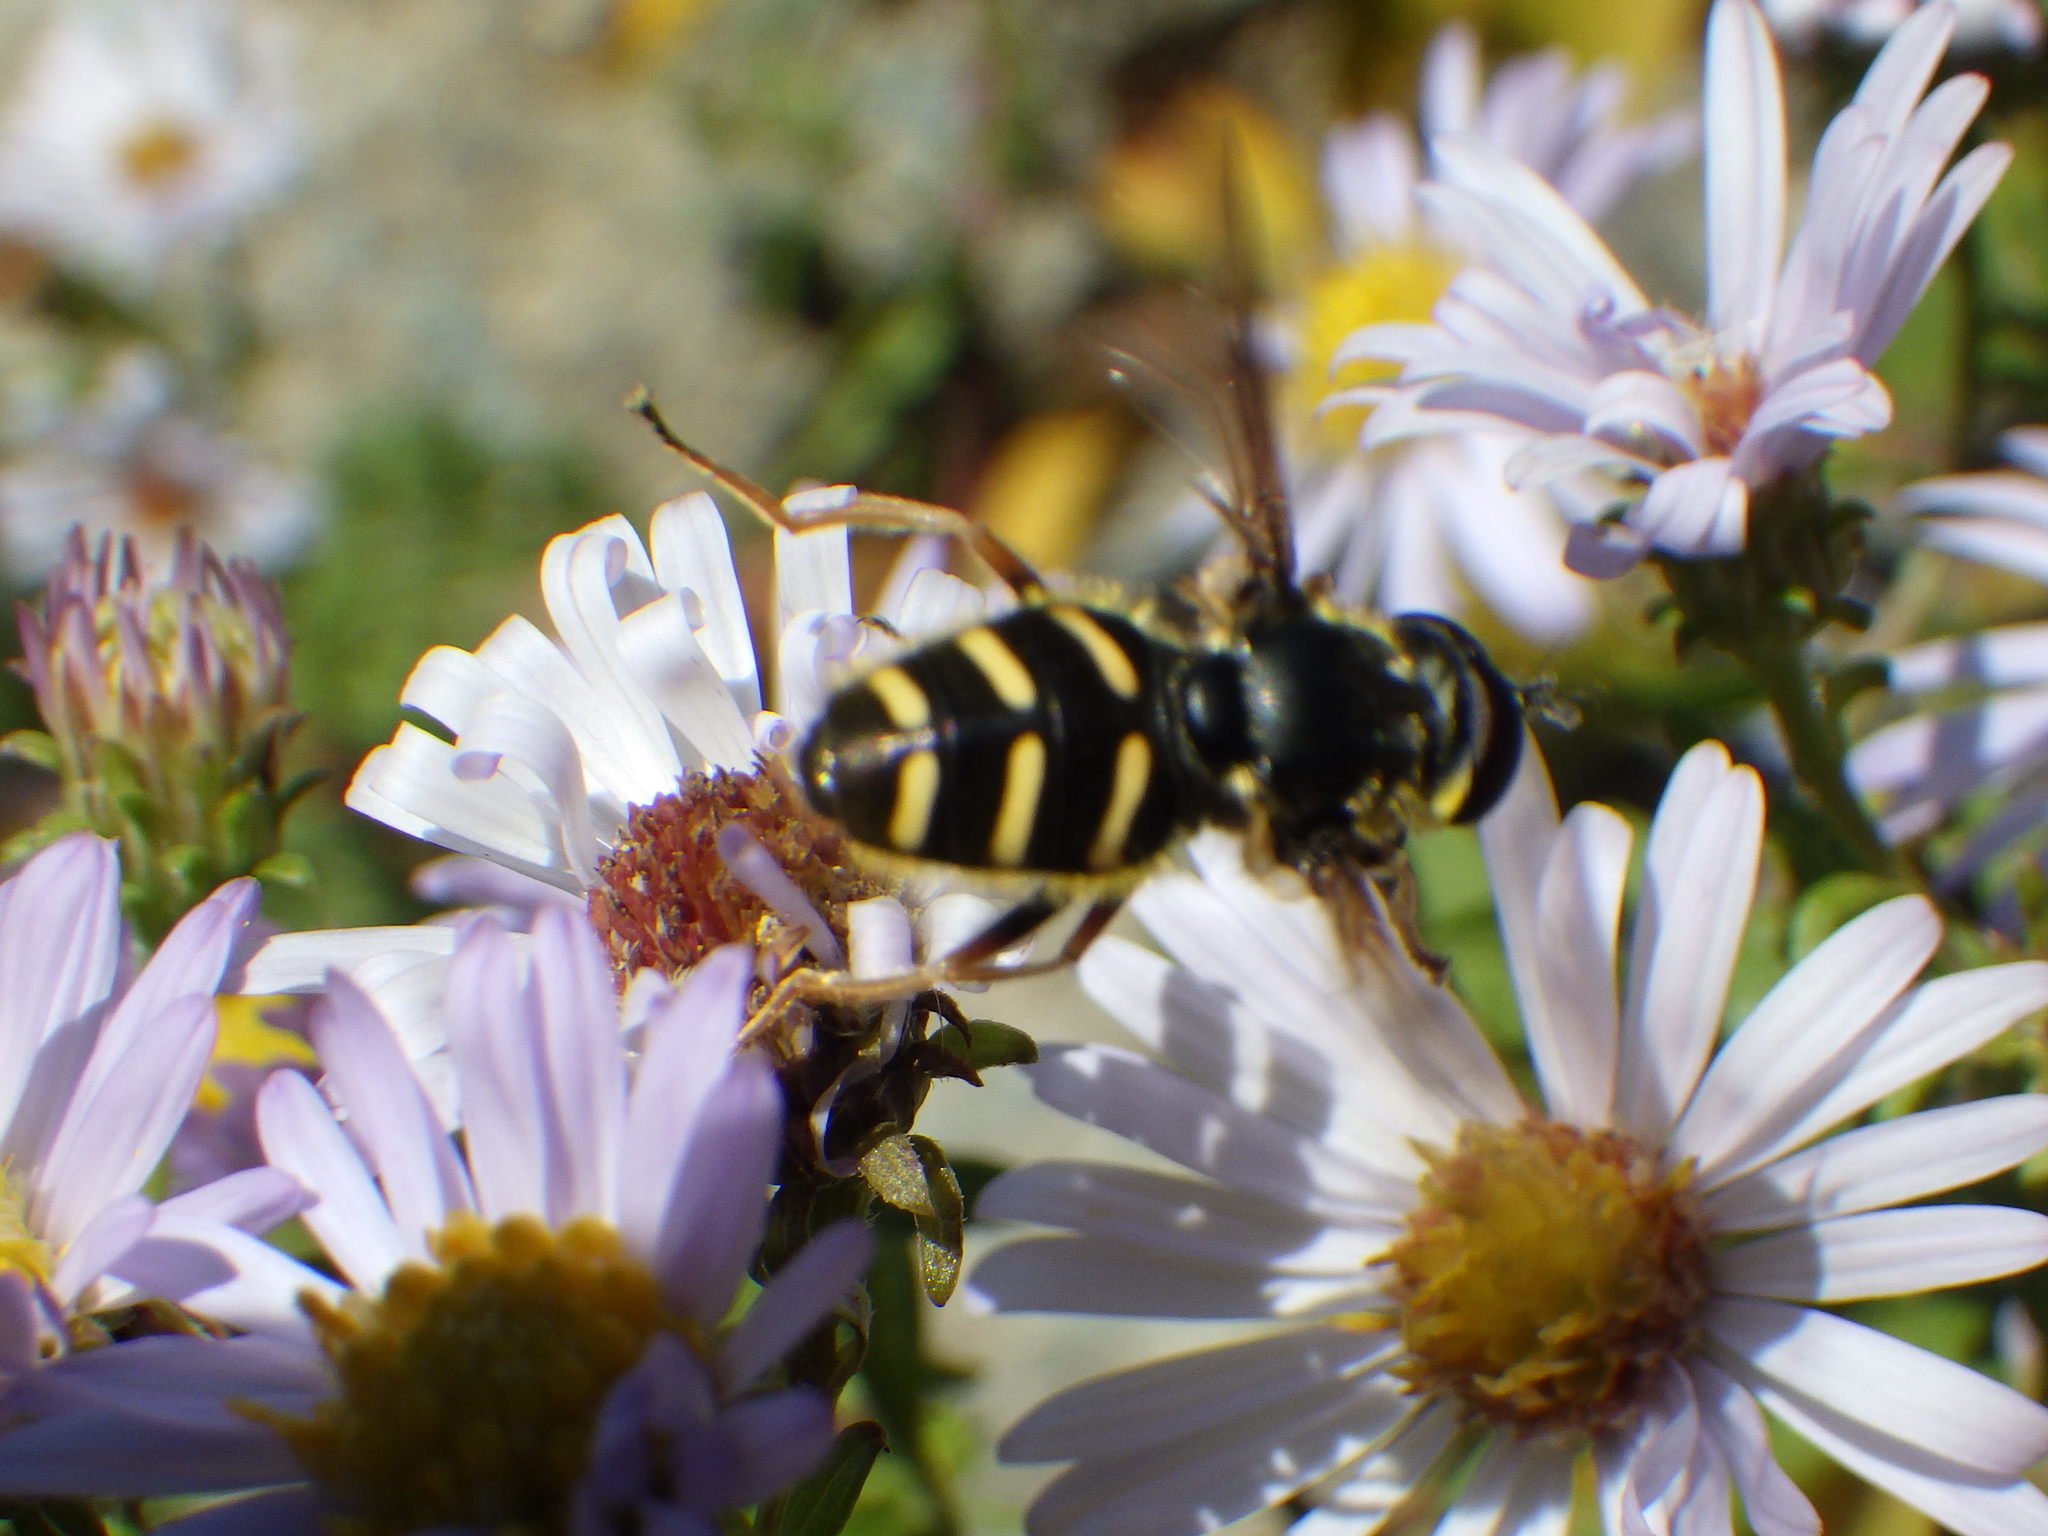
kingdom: Animalia
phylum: Arthropoda
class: Insecta
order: Diptera
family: Syrphidae
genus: Sericomyia
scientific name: Sericomyia chrysotoxoides
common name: Oblique-banded pond fly
